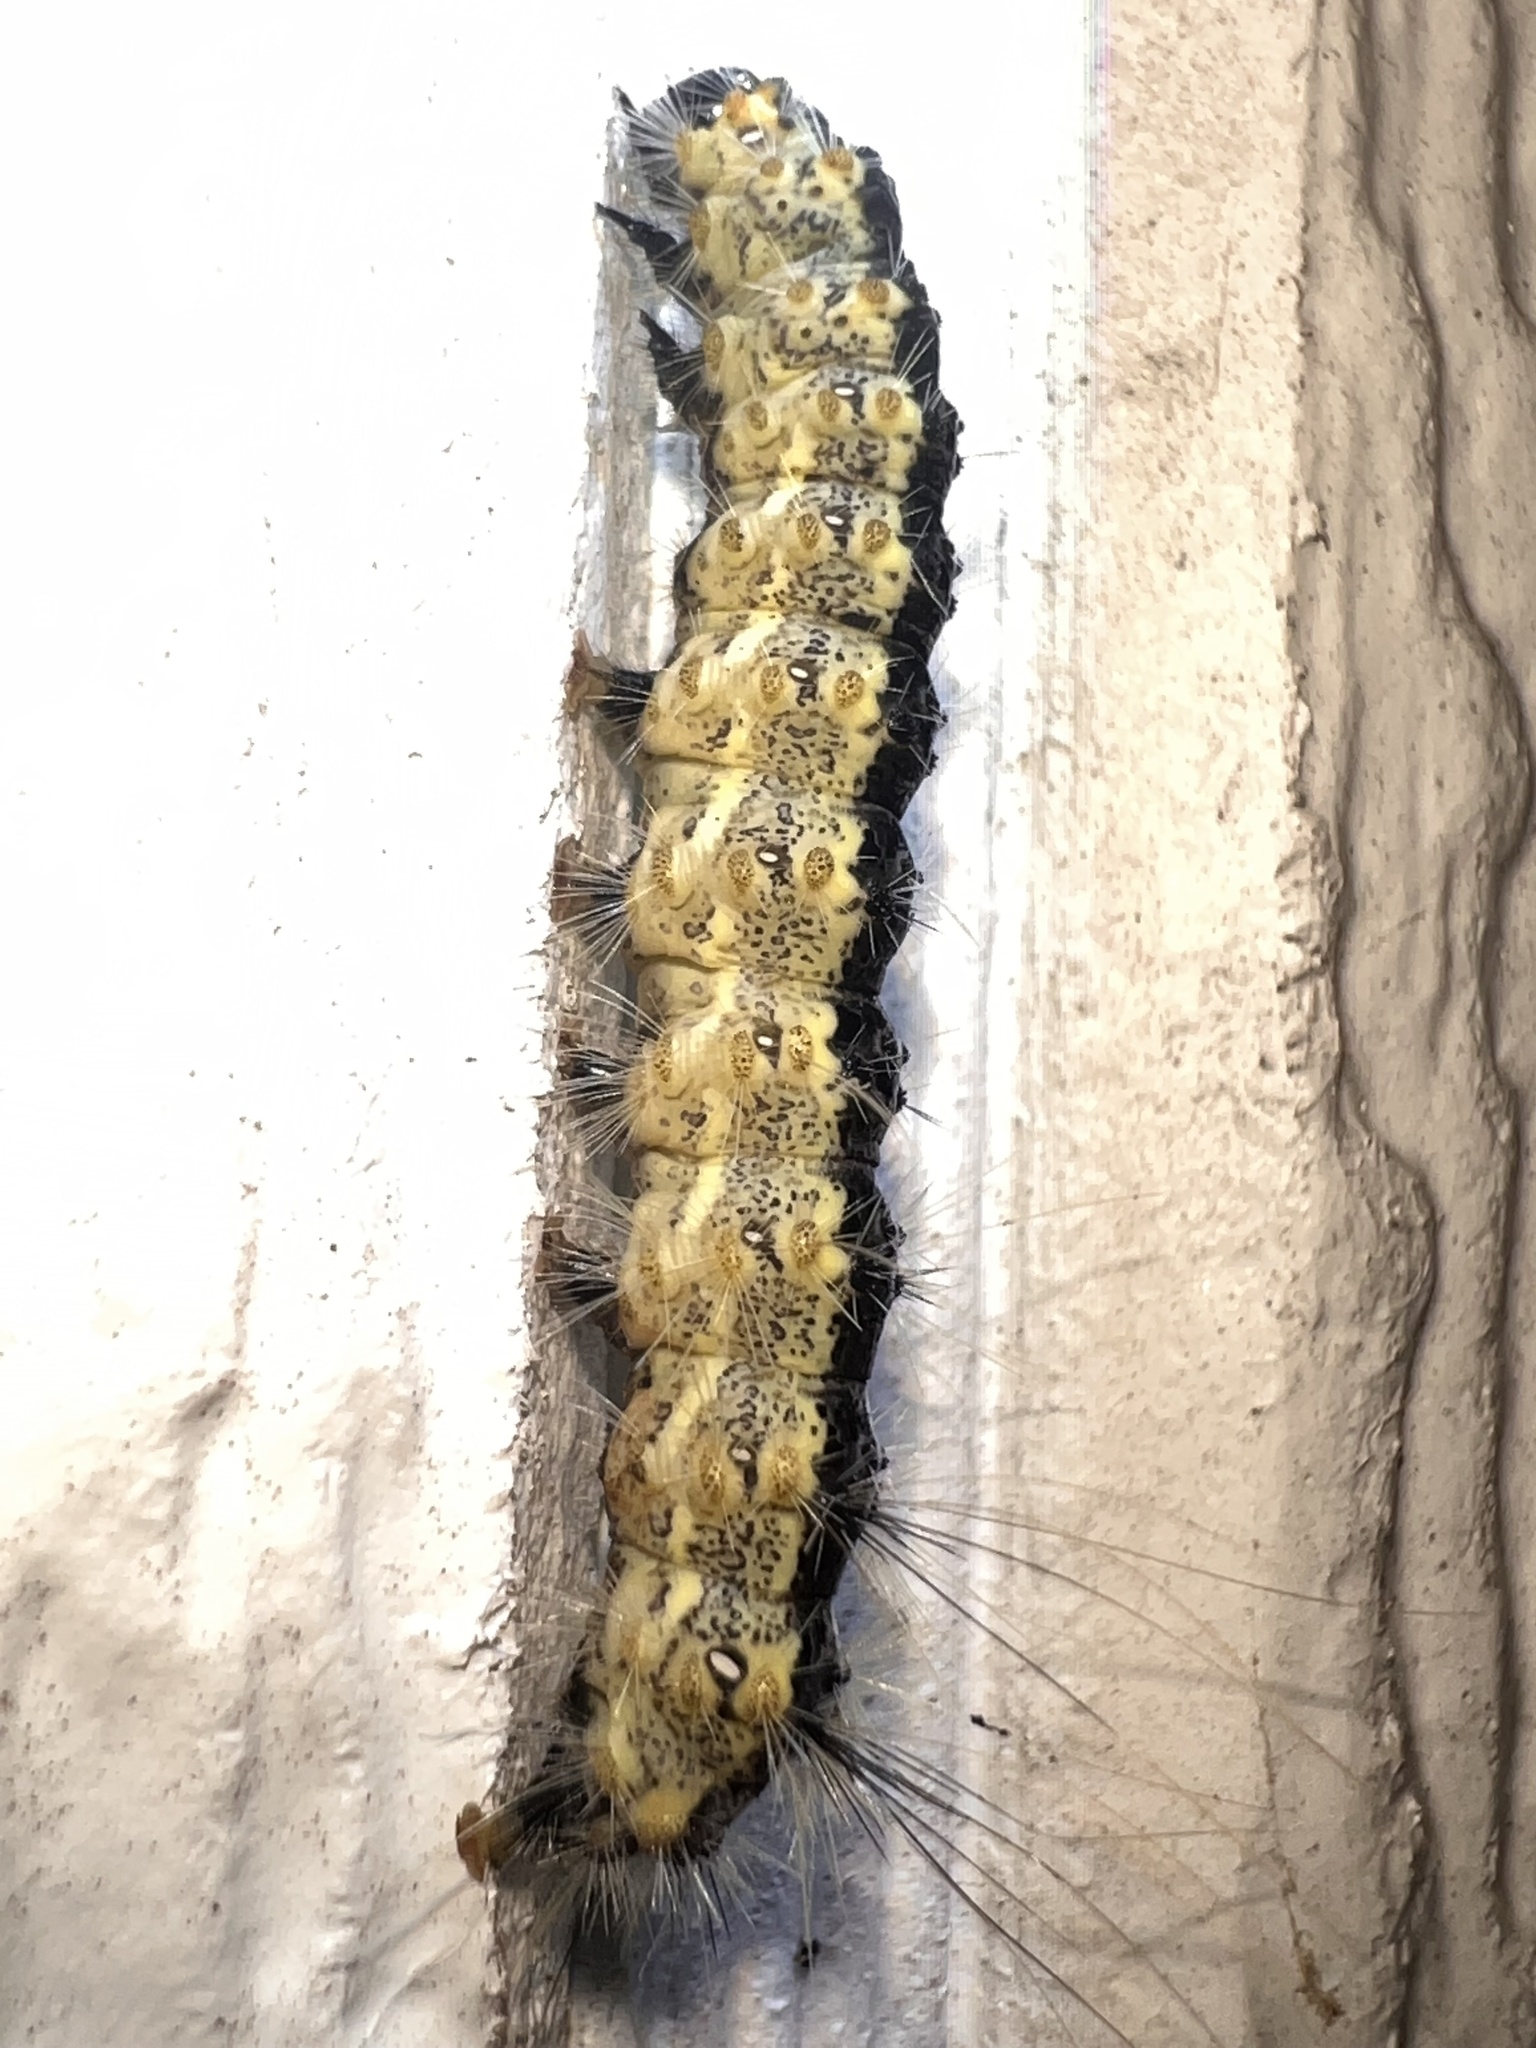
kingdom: Animalia
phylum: Arthropoda
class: Insecta
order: Lepidoptera
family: Erebidae
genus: Estigmene
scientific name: Estigmene acrea
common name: Salt marsh moth
